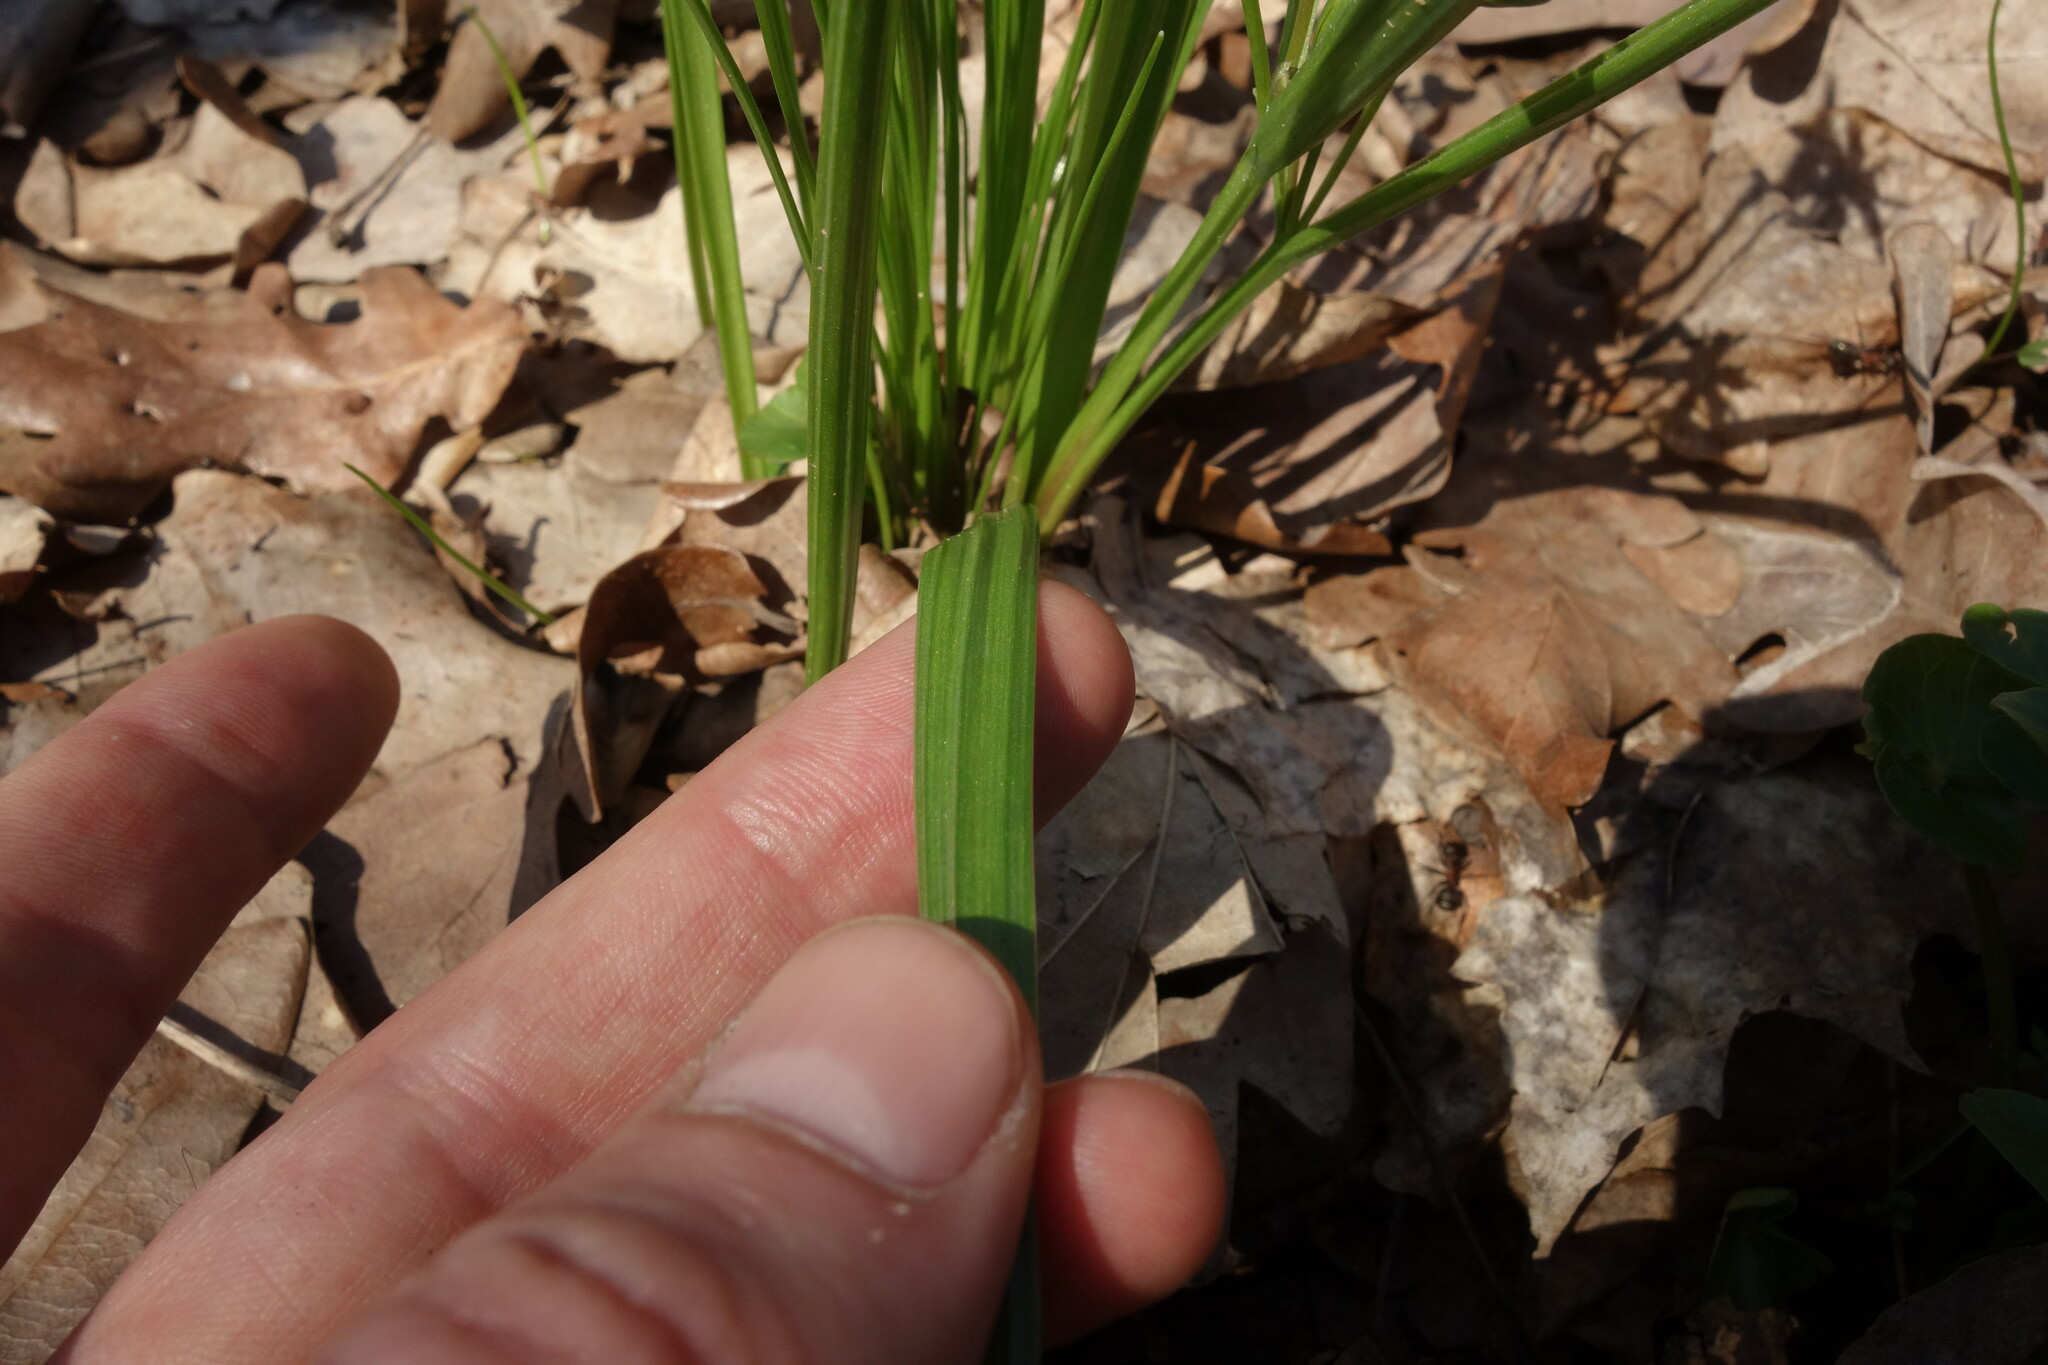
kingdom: Plantae
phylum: Tracheophyta
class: Liliopsida
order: Liliales
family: Liliaceae
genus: Gagea
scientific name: Gagea lutea
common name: Yellow star-of-bethlehem
